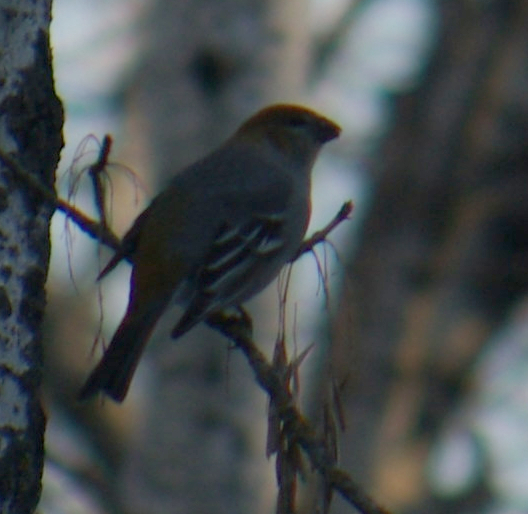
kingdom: Animalia
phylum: Chordata
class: Aves
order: Passeriformes
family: Fringillidae
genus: Pinicola
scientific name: Pinicola enucleator
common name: Pine grosbeak
